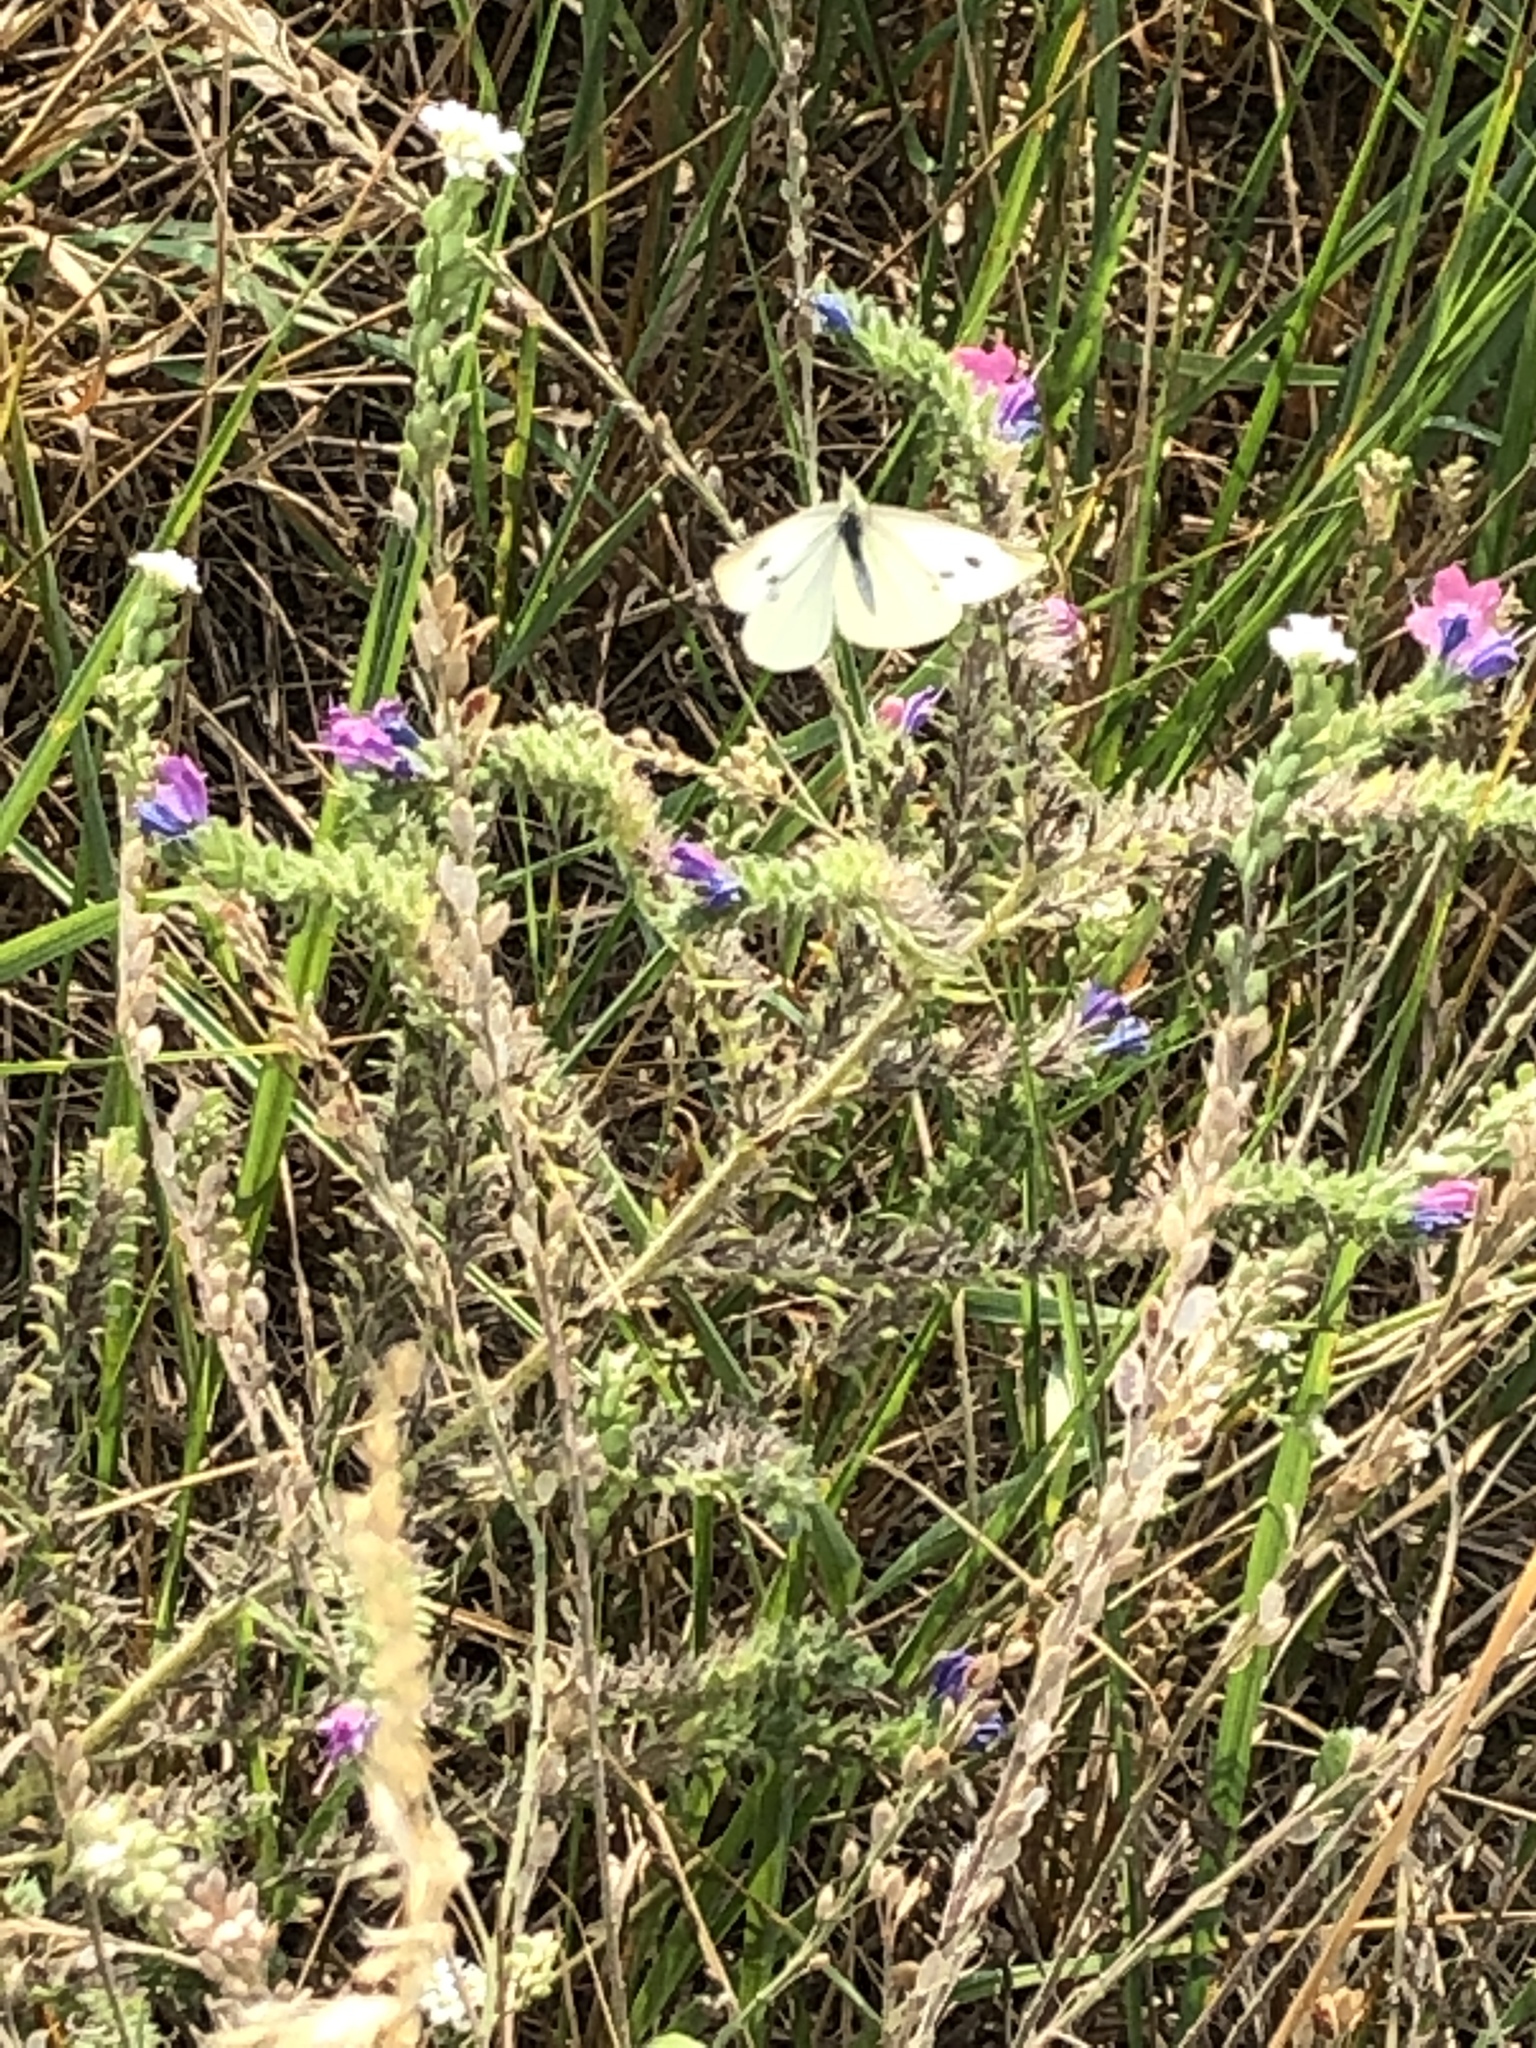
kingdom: Animalia
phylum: Arthropoda
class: Insecta
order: Lepidoptera
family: Pieridae
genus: Pieris
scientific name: Pieris rapae
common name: Small white
